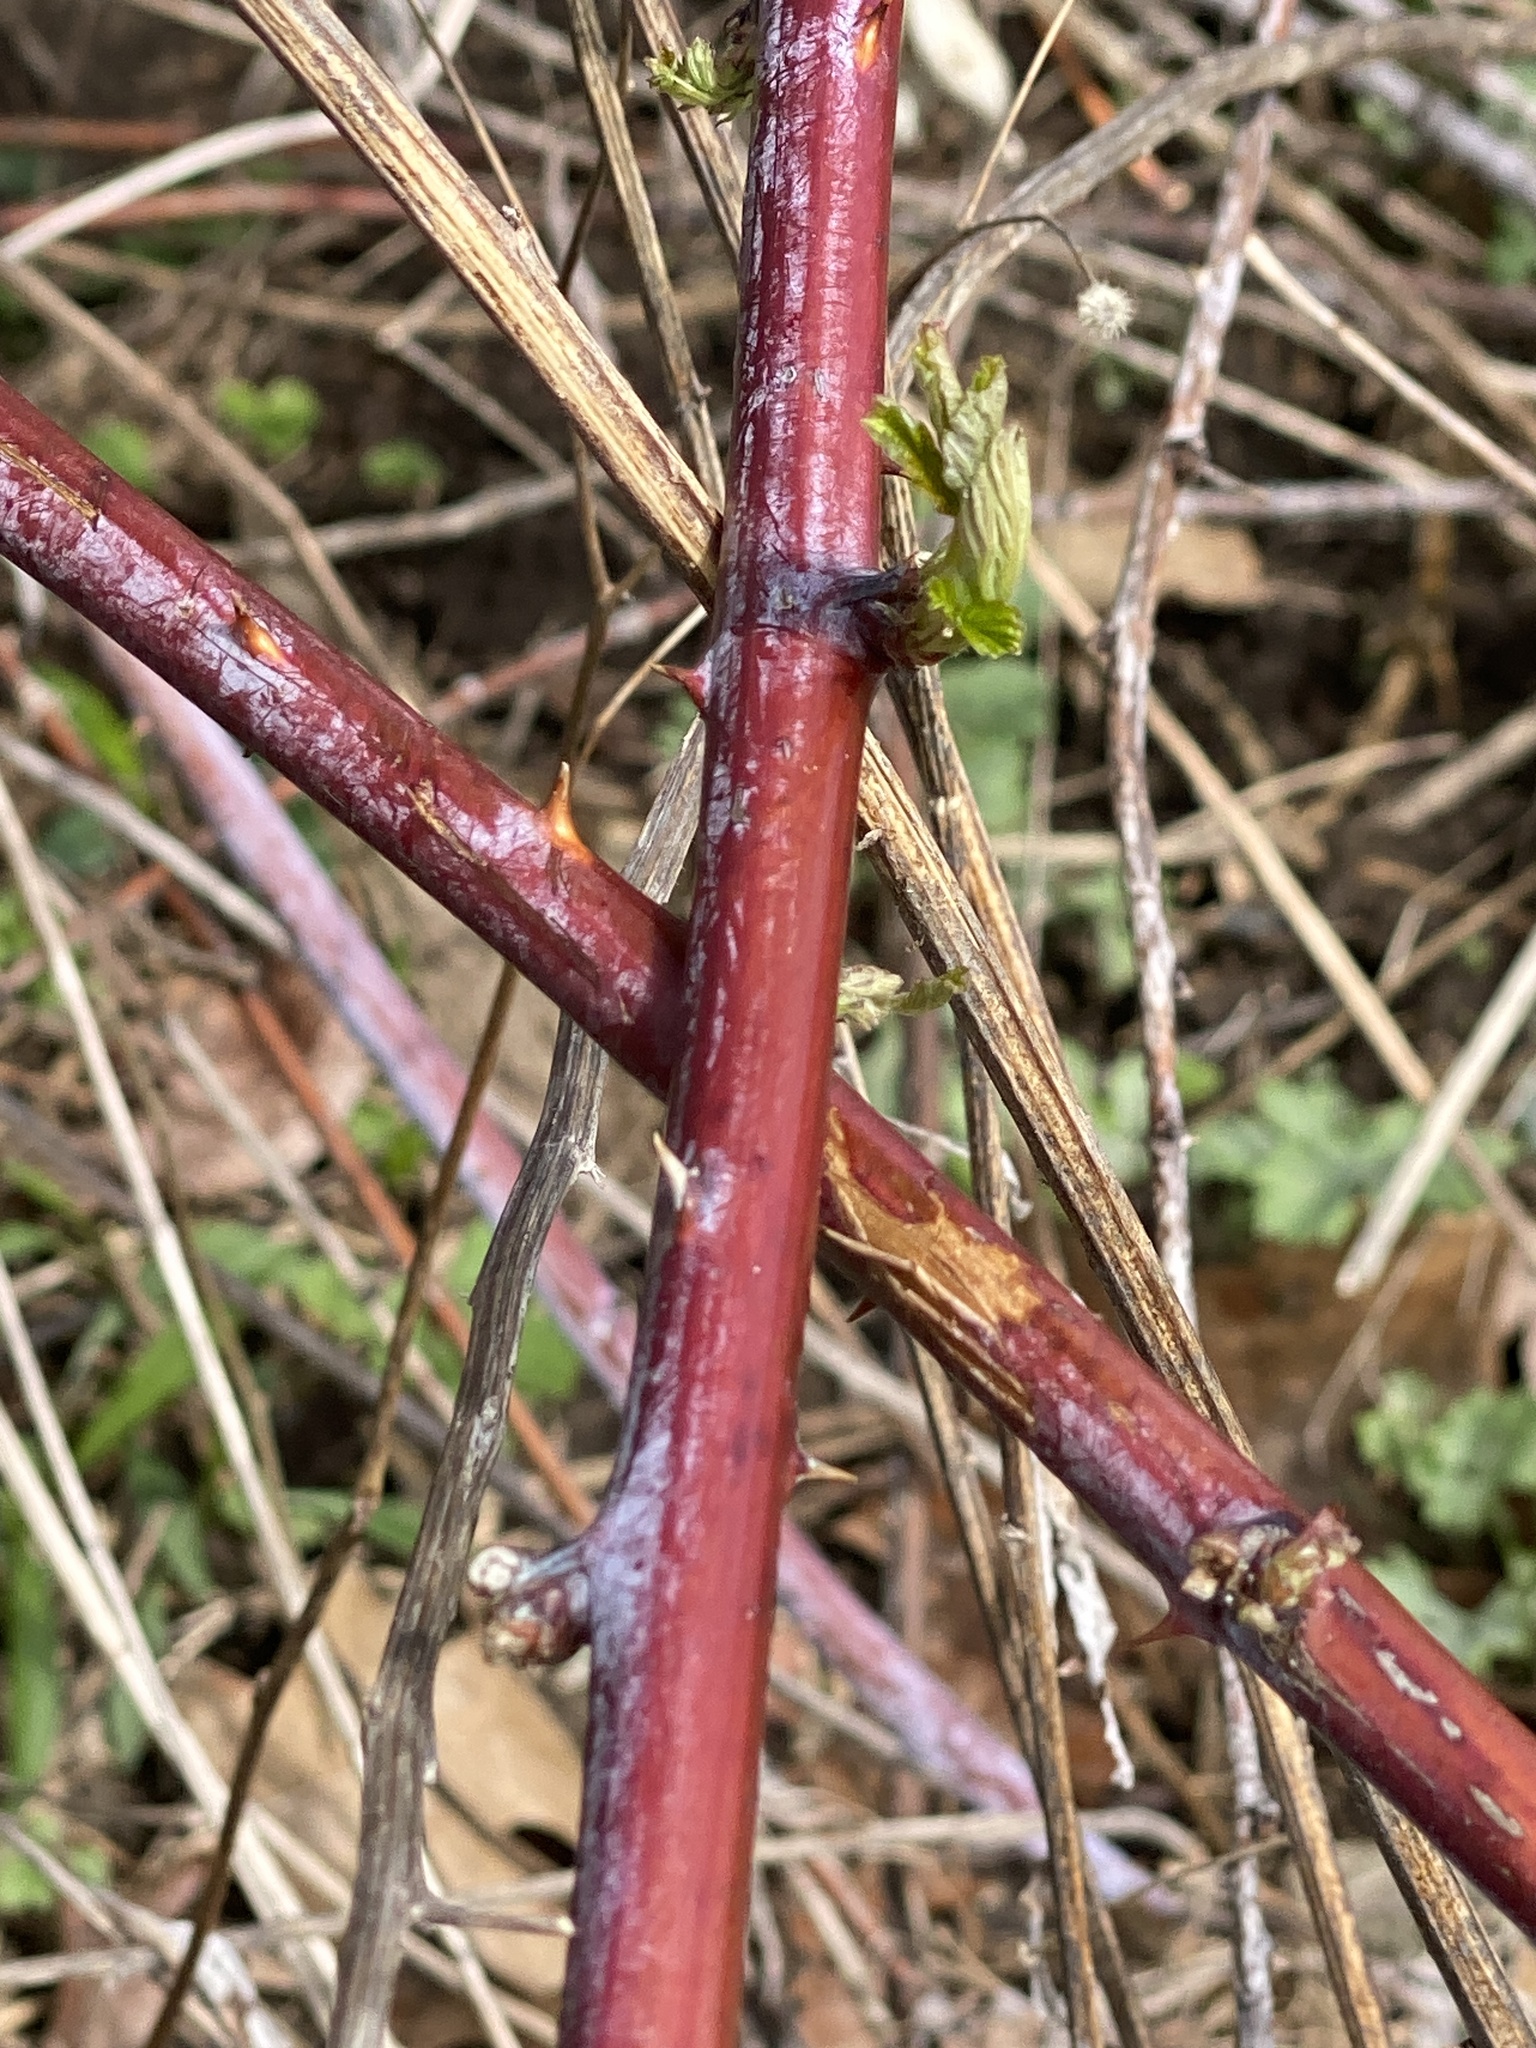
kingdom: Plantae
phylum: Tracheophyta
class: Magnoliopsida
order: Rosales
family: Rosaceae
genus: Rubus
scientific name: Rubus occidentalis
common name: Black raspberry
